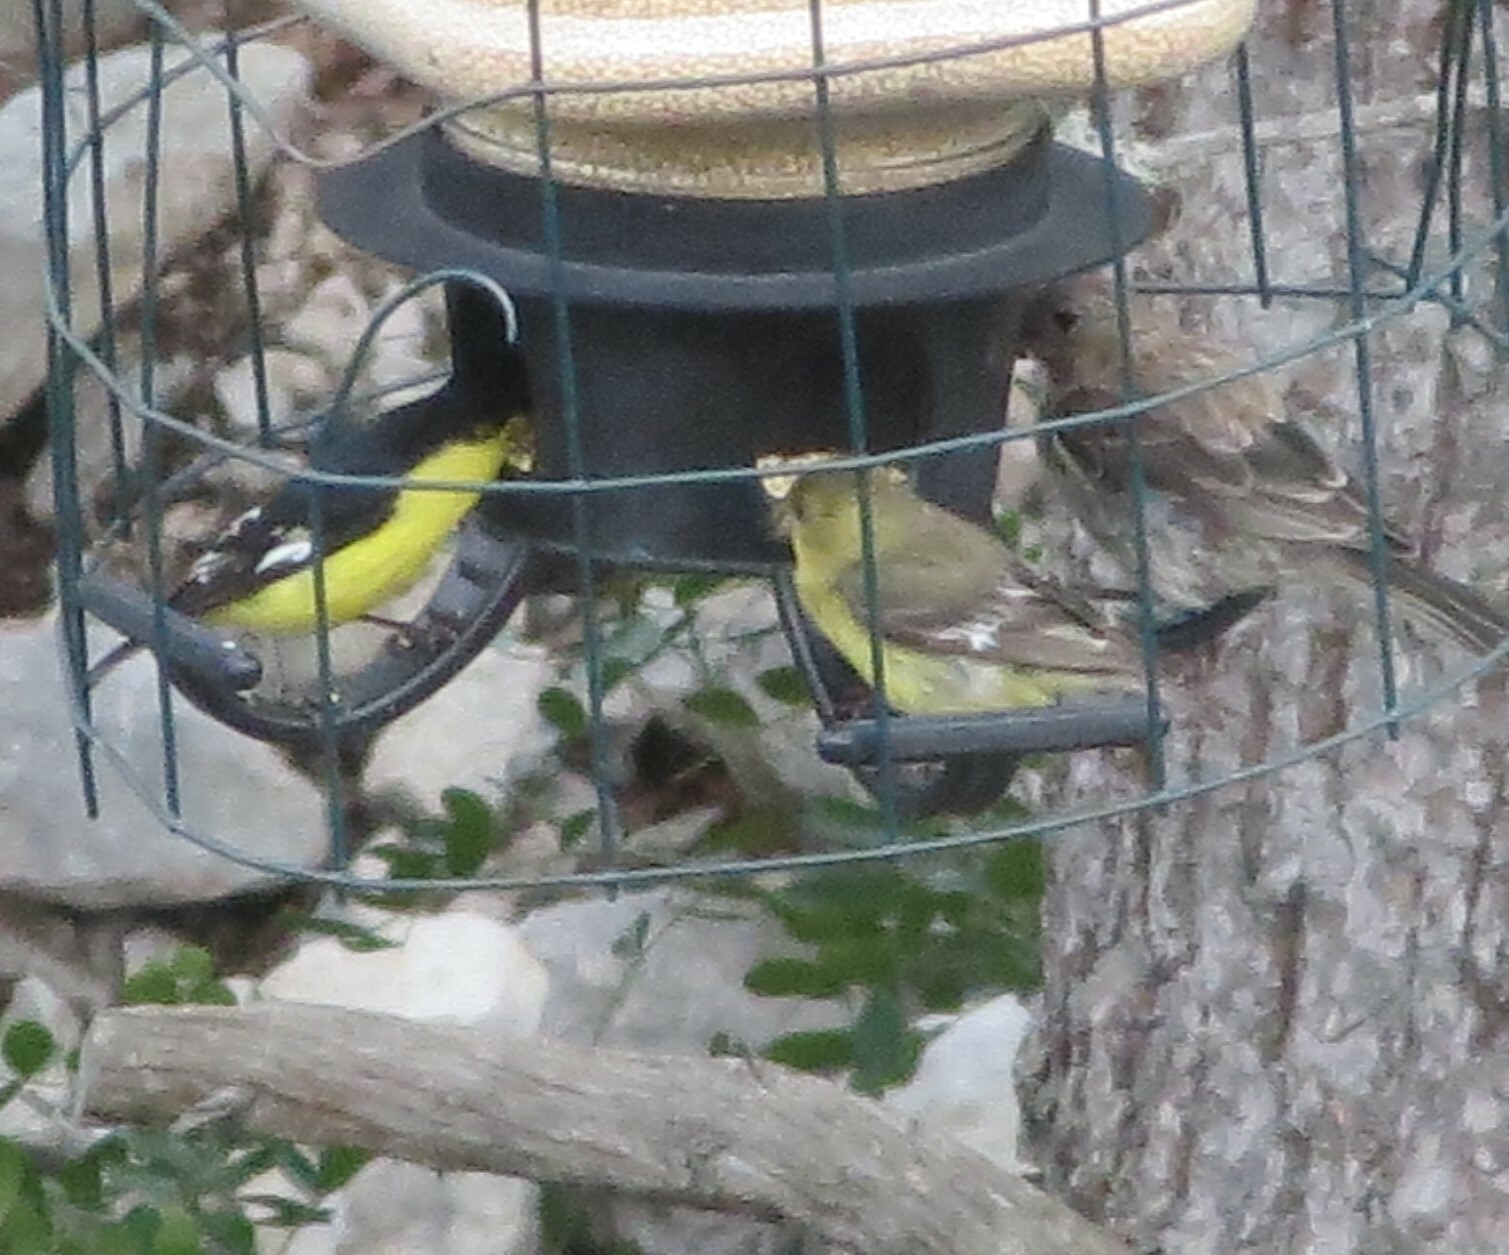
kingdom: Animalia
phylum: Chordata
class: Aves
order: Passeriformes
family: Fringillidae
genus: Spinus
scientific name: Spinus psaltria
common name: Lesser goldfinch
